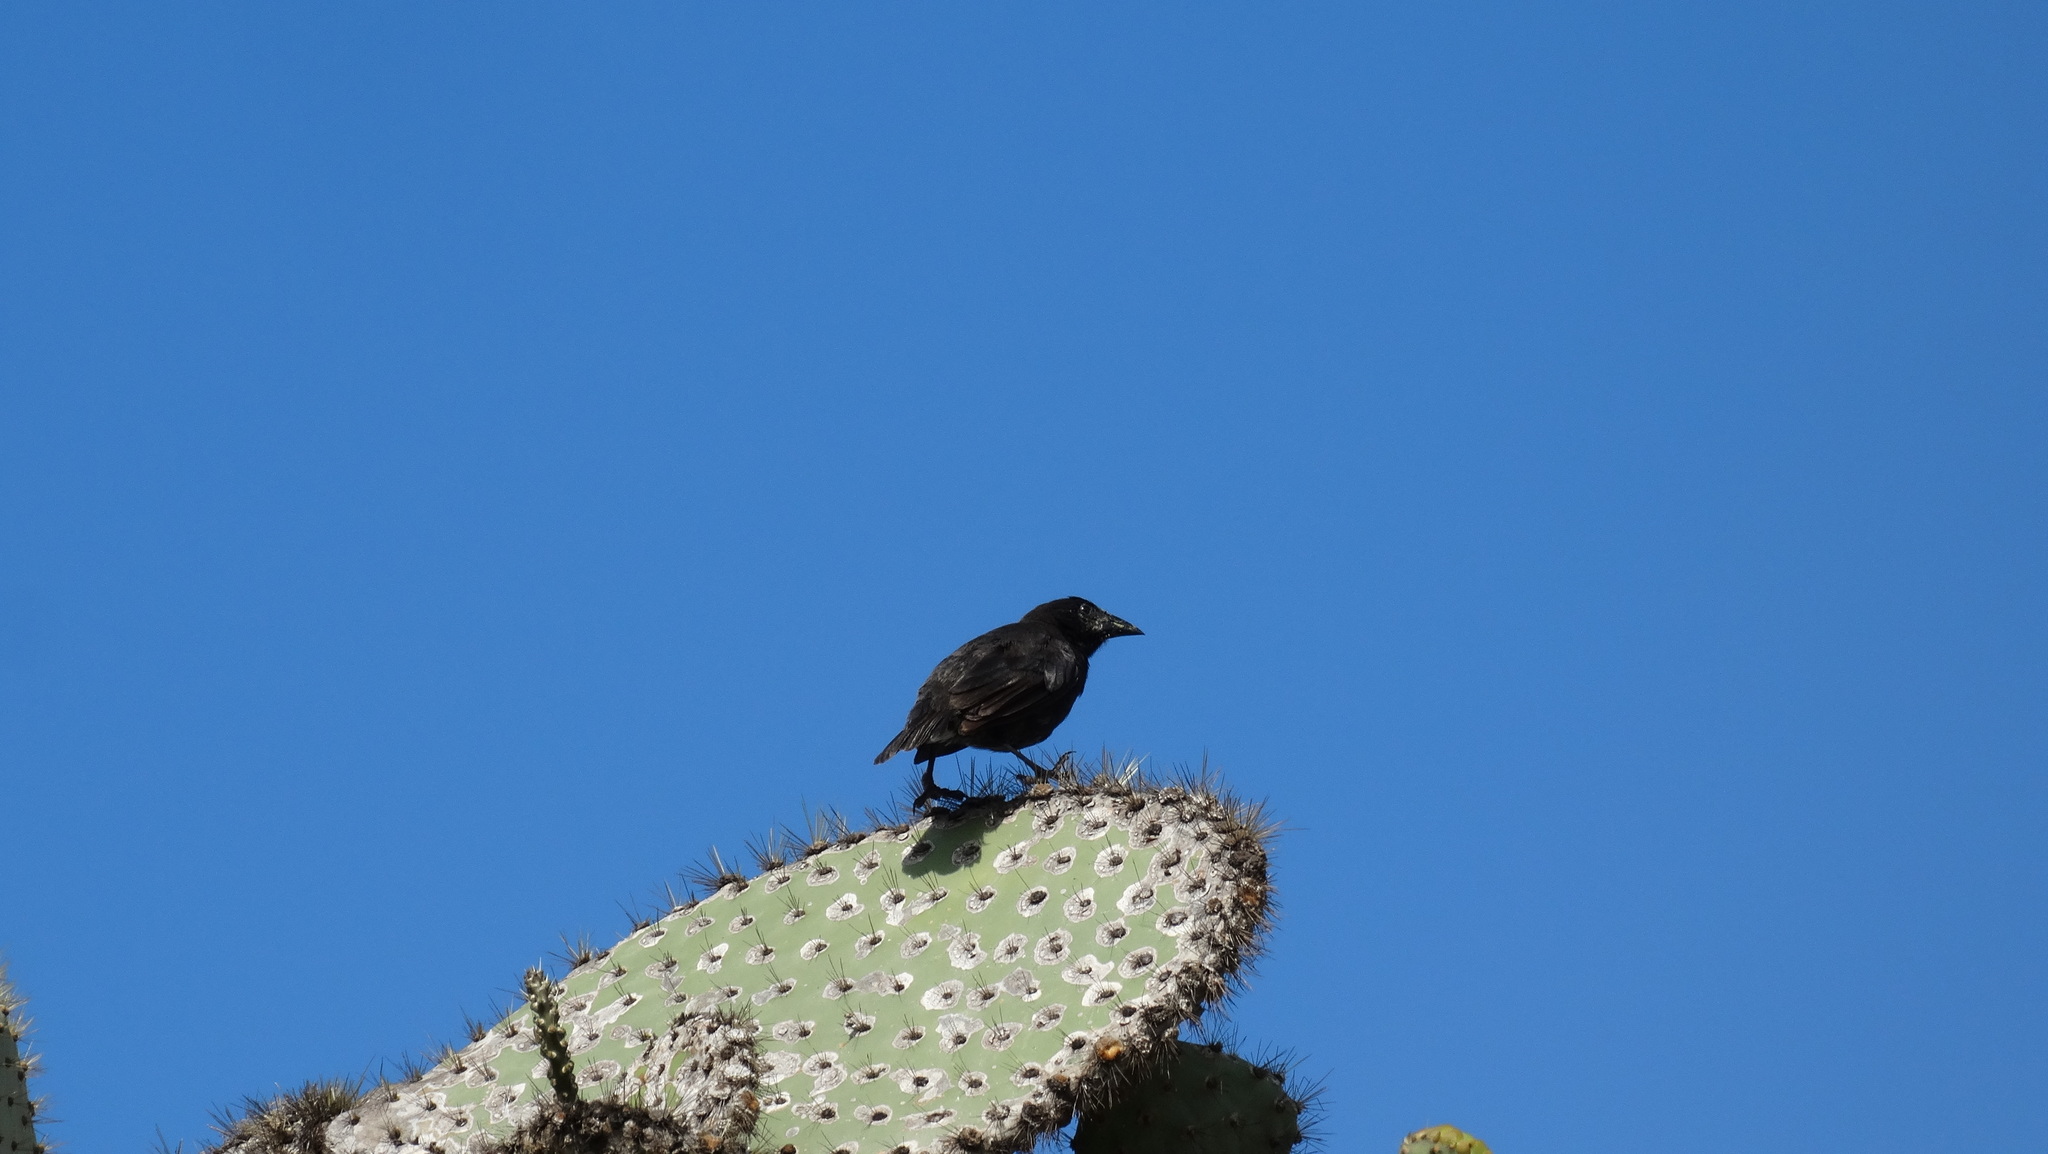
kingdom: Animalia
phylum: Chordata
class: Aves
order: Passeriformes
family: Thraupidae
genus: Geospiza
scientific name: Geospiza scandens
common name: Common cactus-finch
